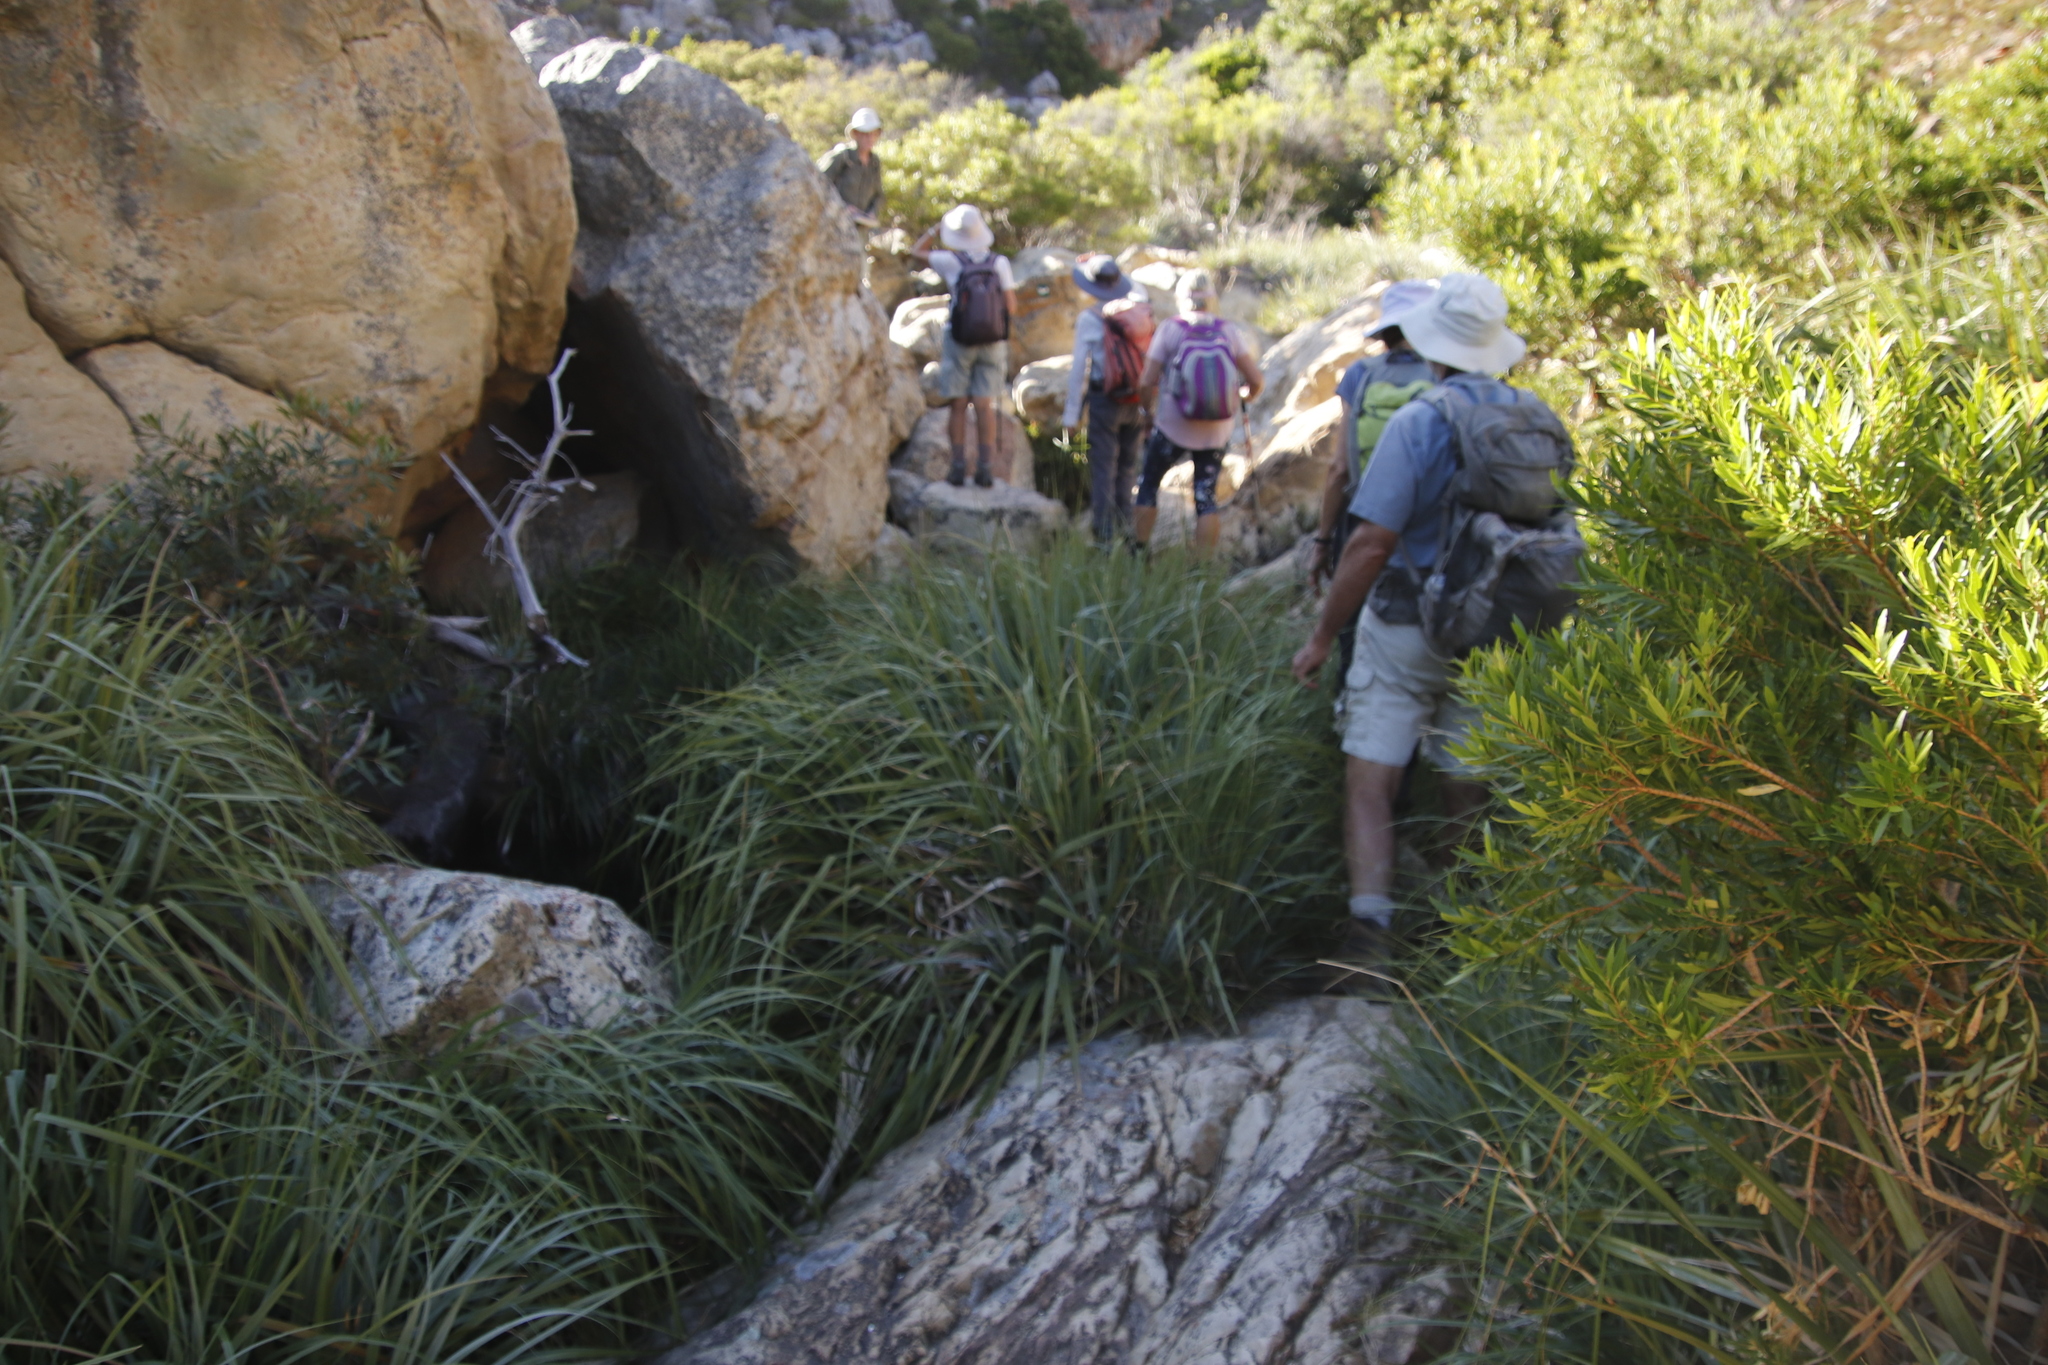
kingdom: Plantae
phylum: Tracheophyta
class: Liliopsida
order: Poales
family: Thurniaceae
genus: Prionium
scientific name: Prionium serratum
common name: Palmiet
